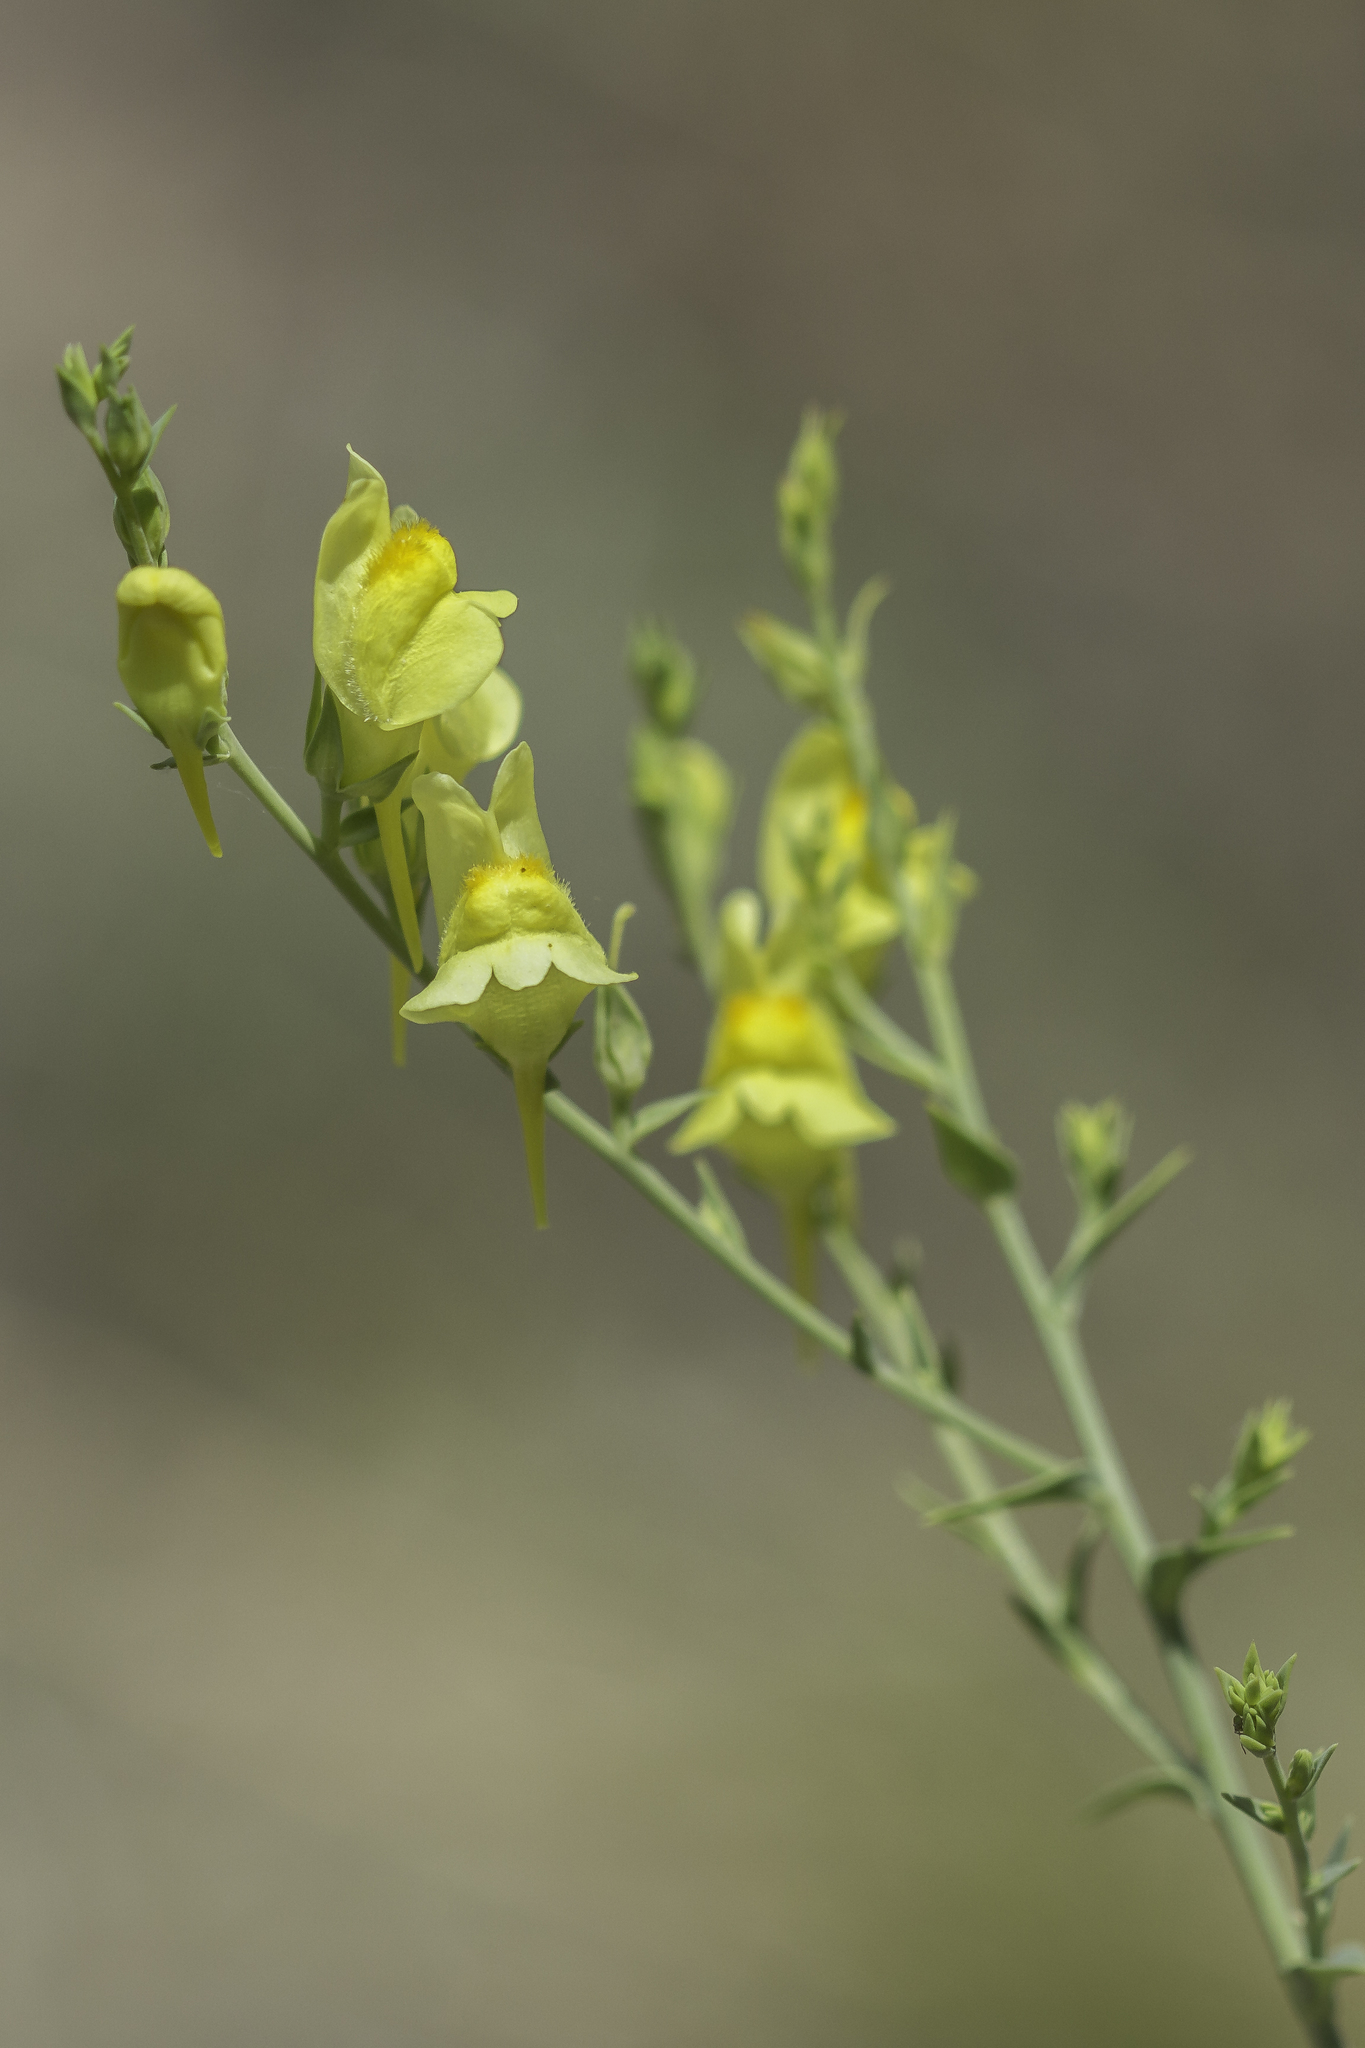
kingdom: Plantae
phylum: Tracheophyta
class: Magnoliopsida
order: Lamiales
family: Plantaginaceae
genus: Linaria
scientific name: Linaria dalmatica
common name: Dalmatian toadflax
